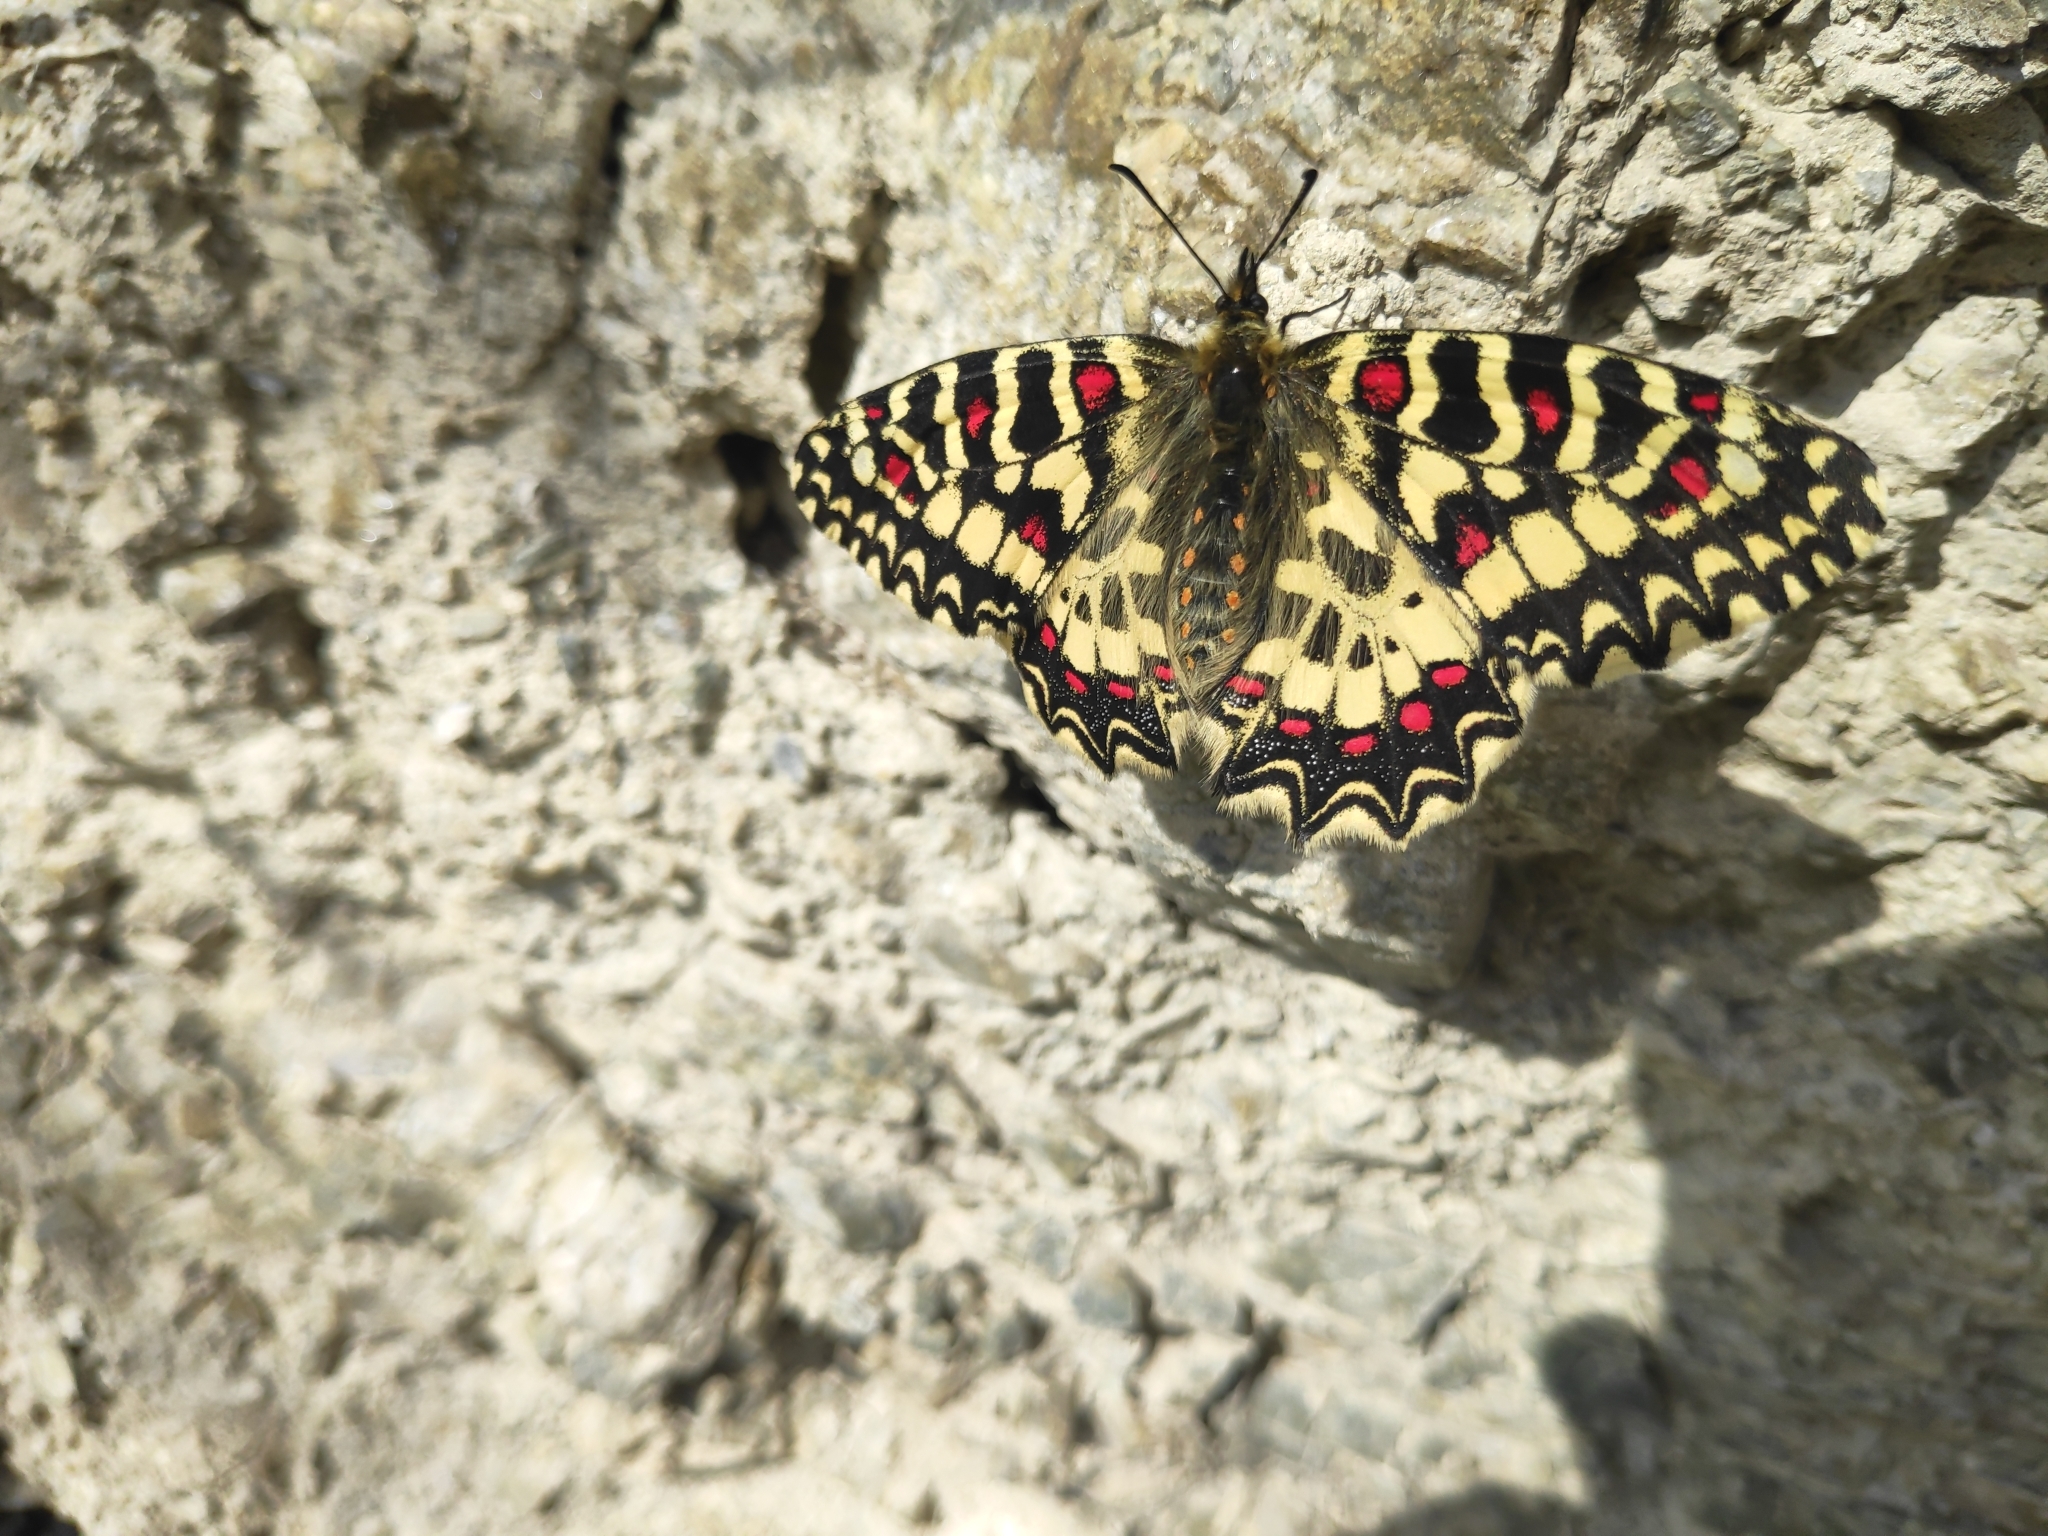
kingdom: Animalia
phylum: Arthropoda
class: Insecta
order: Lepidoptera
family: Papilionidae
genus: Zerynthia
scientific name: Zerynthia rumina
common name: Spanish festoon
